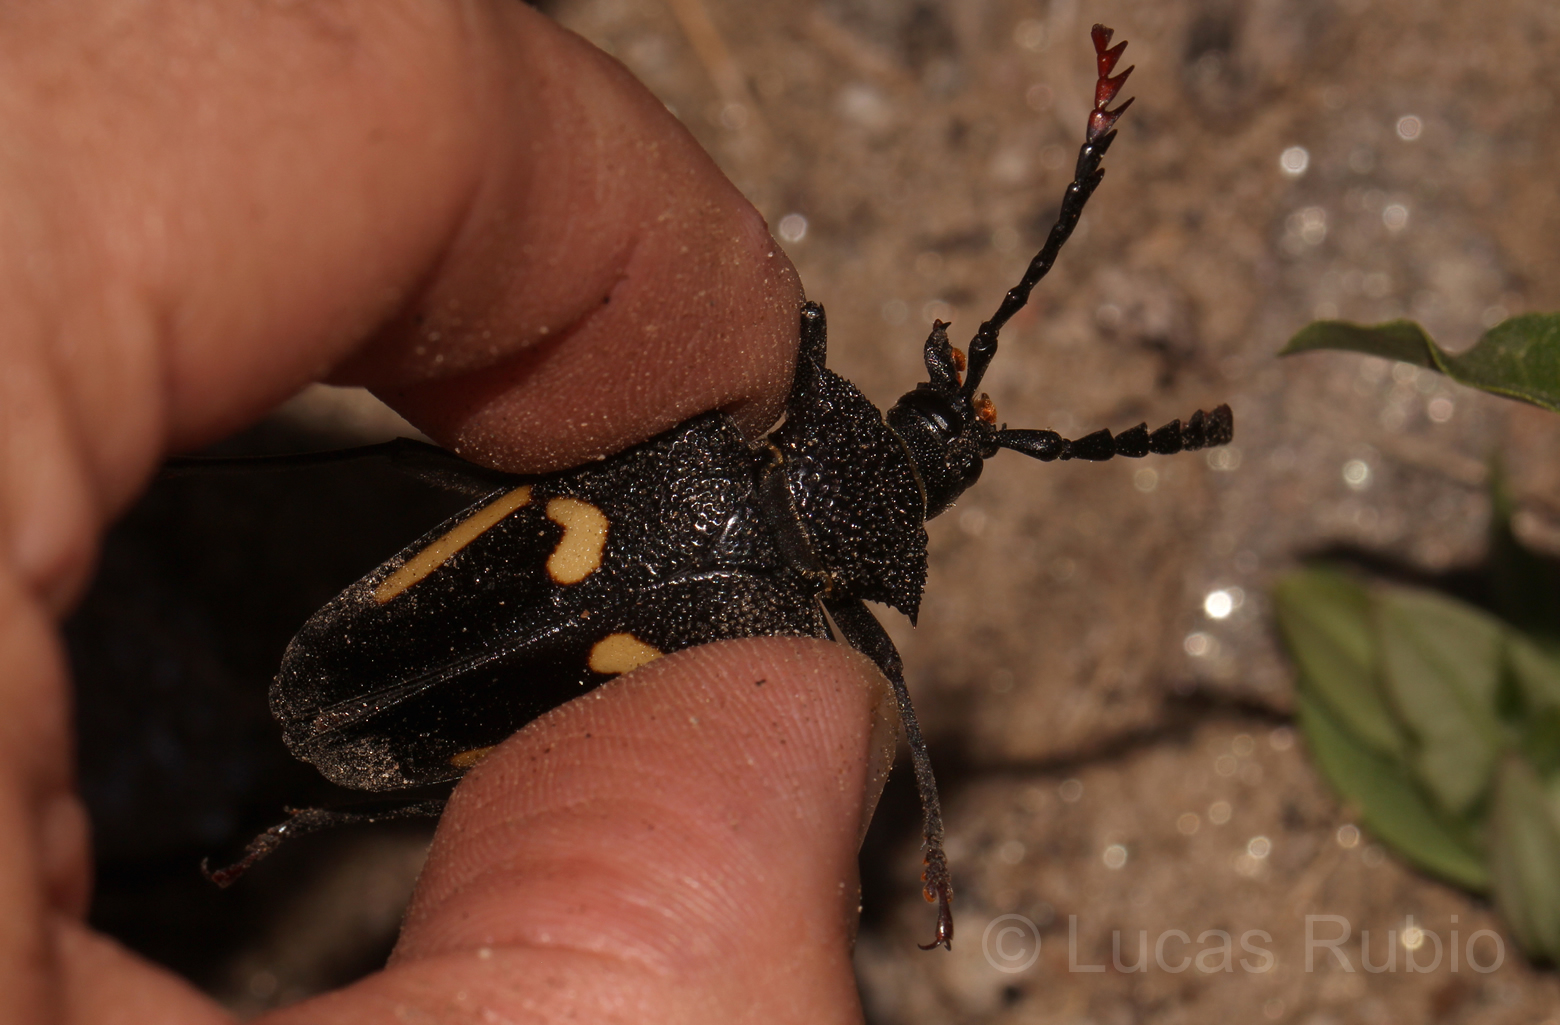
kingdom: Animalia
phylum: Arthropoda
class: Insecta
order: Coleoptera
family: Cerambycidae
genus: Calocomus
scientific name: Calocomus desmarestii
